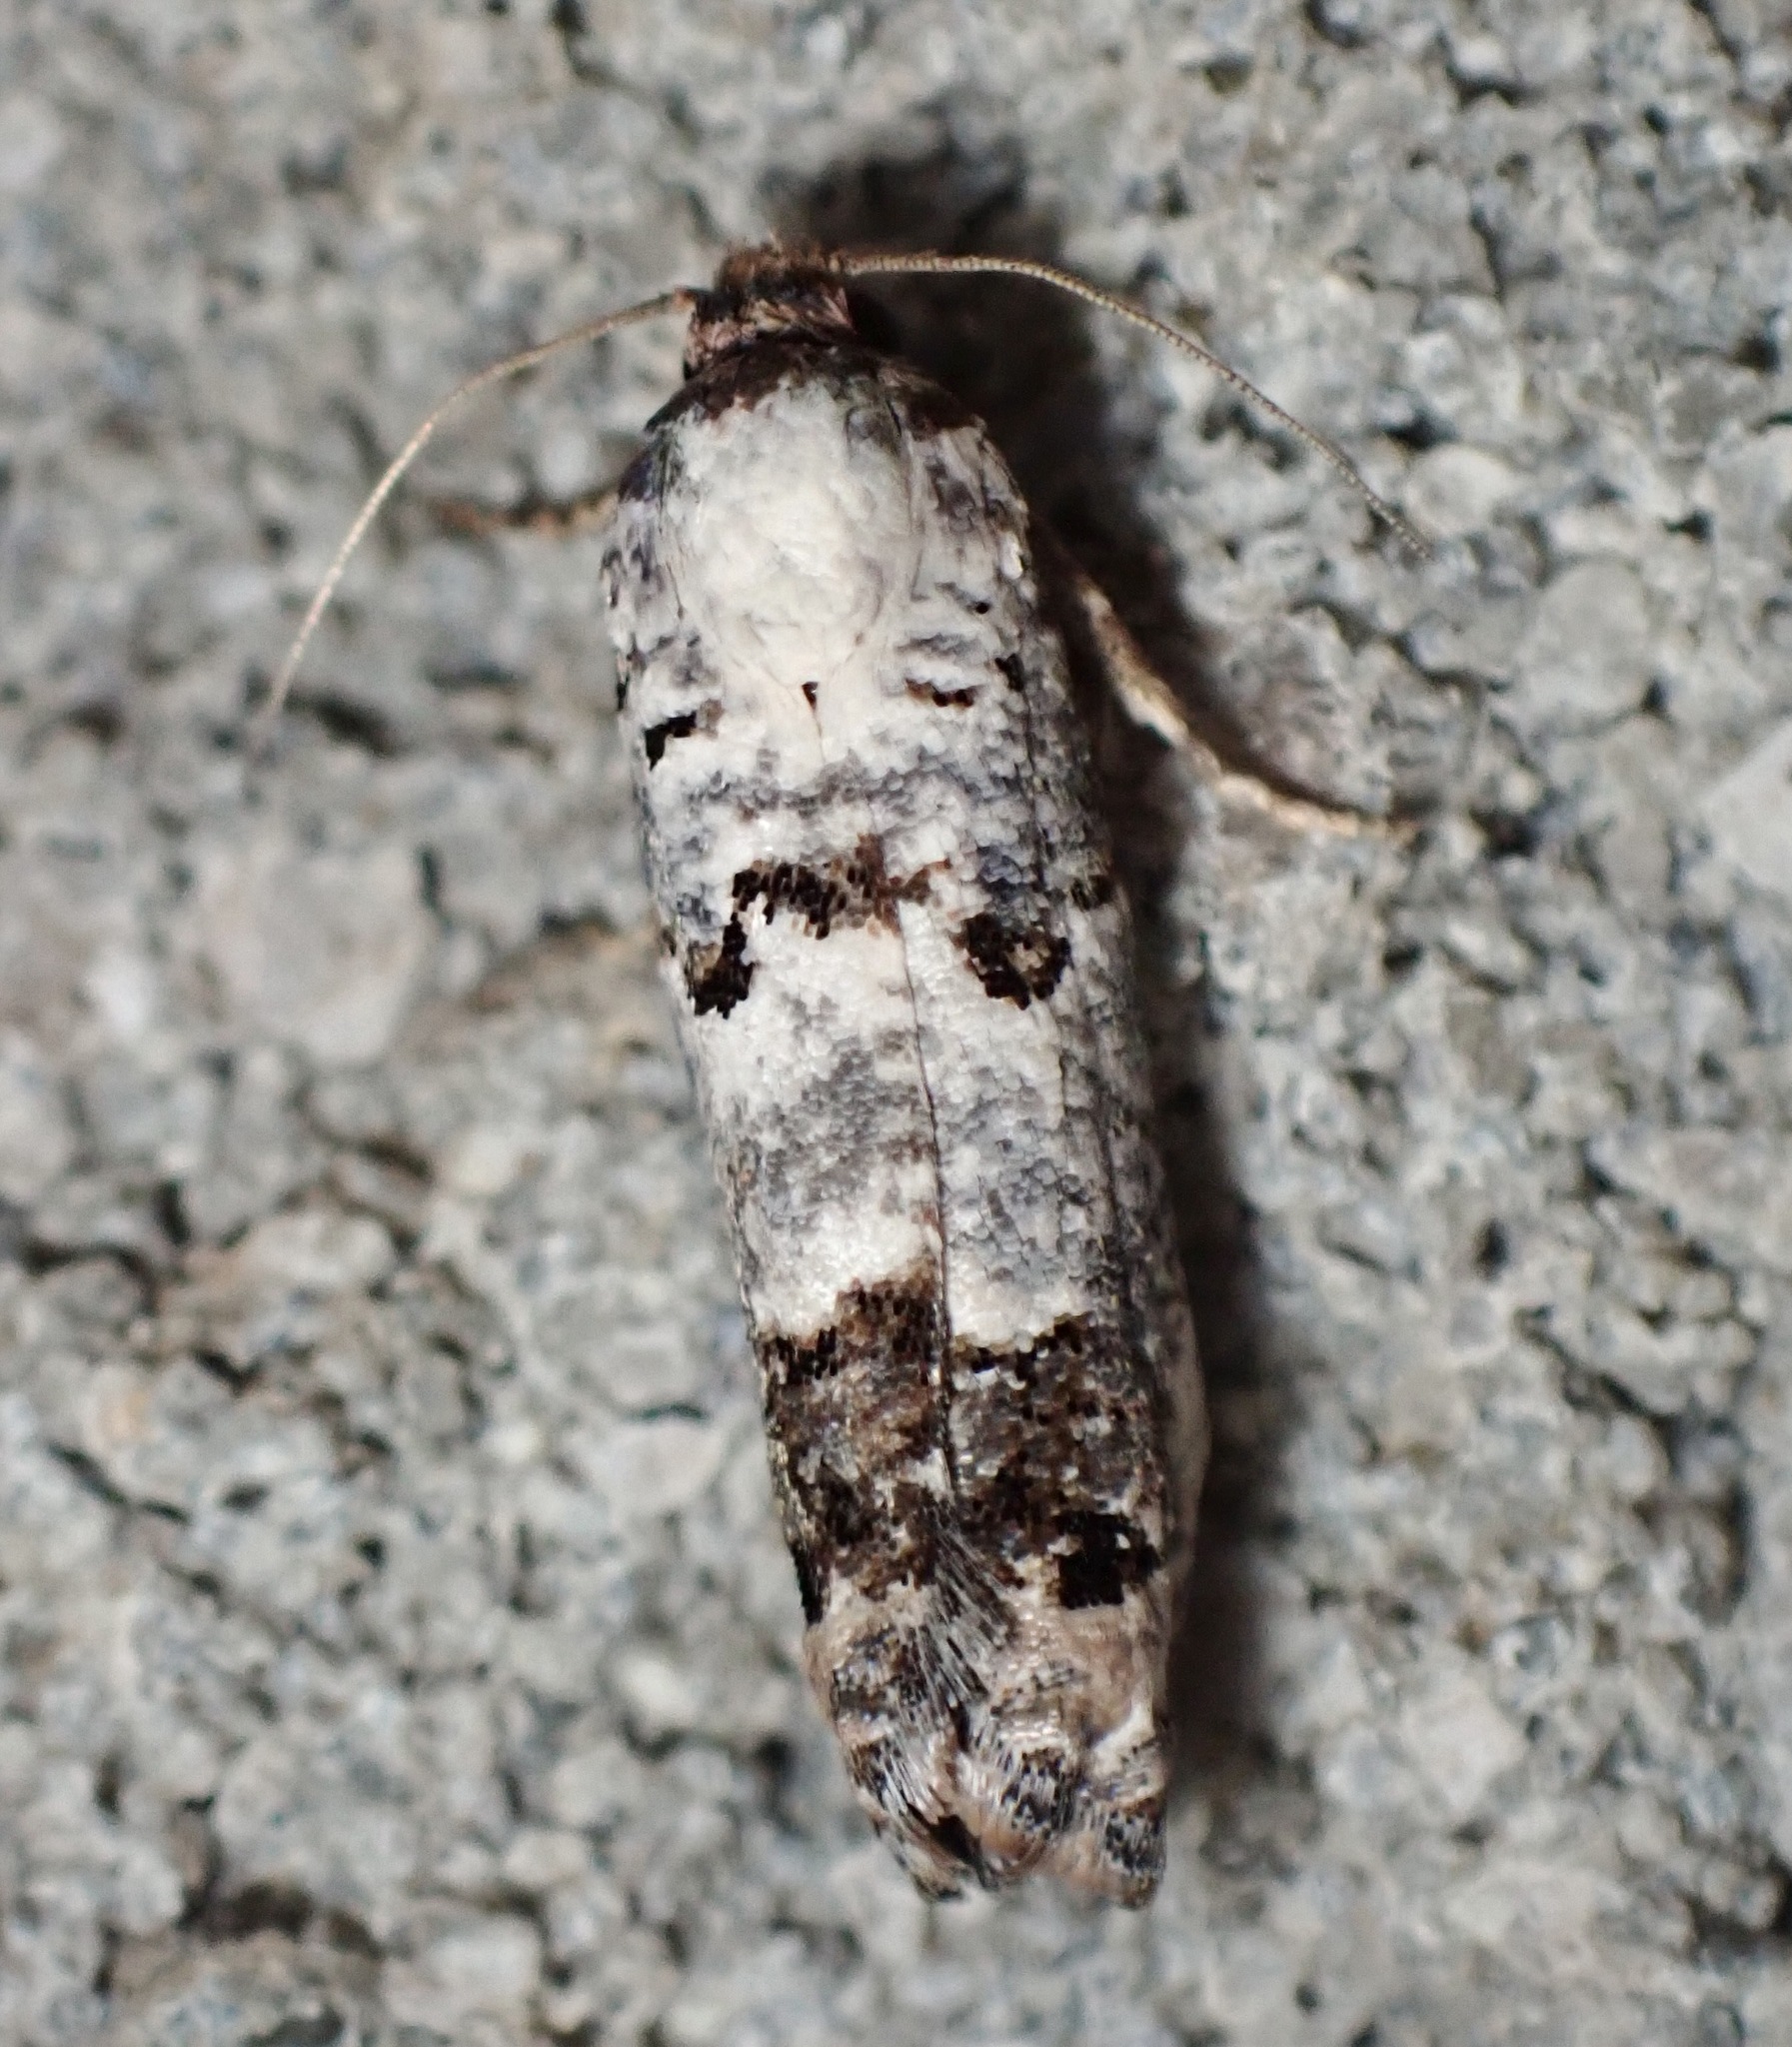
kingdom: Animalia
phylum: Arthropoda
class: Insecta
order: Lepidoptera
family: Tortricidae
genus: Pelochrista
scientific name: Pelochrista eburata
